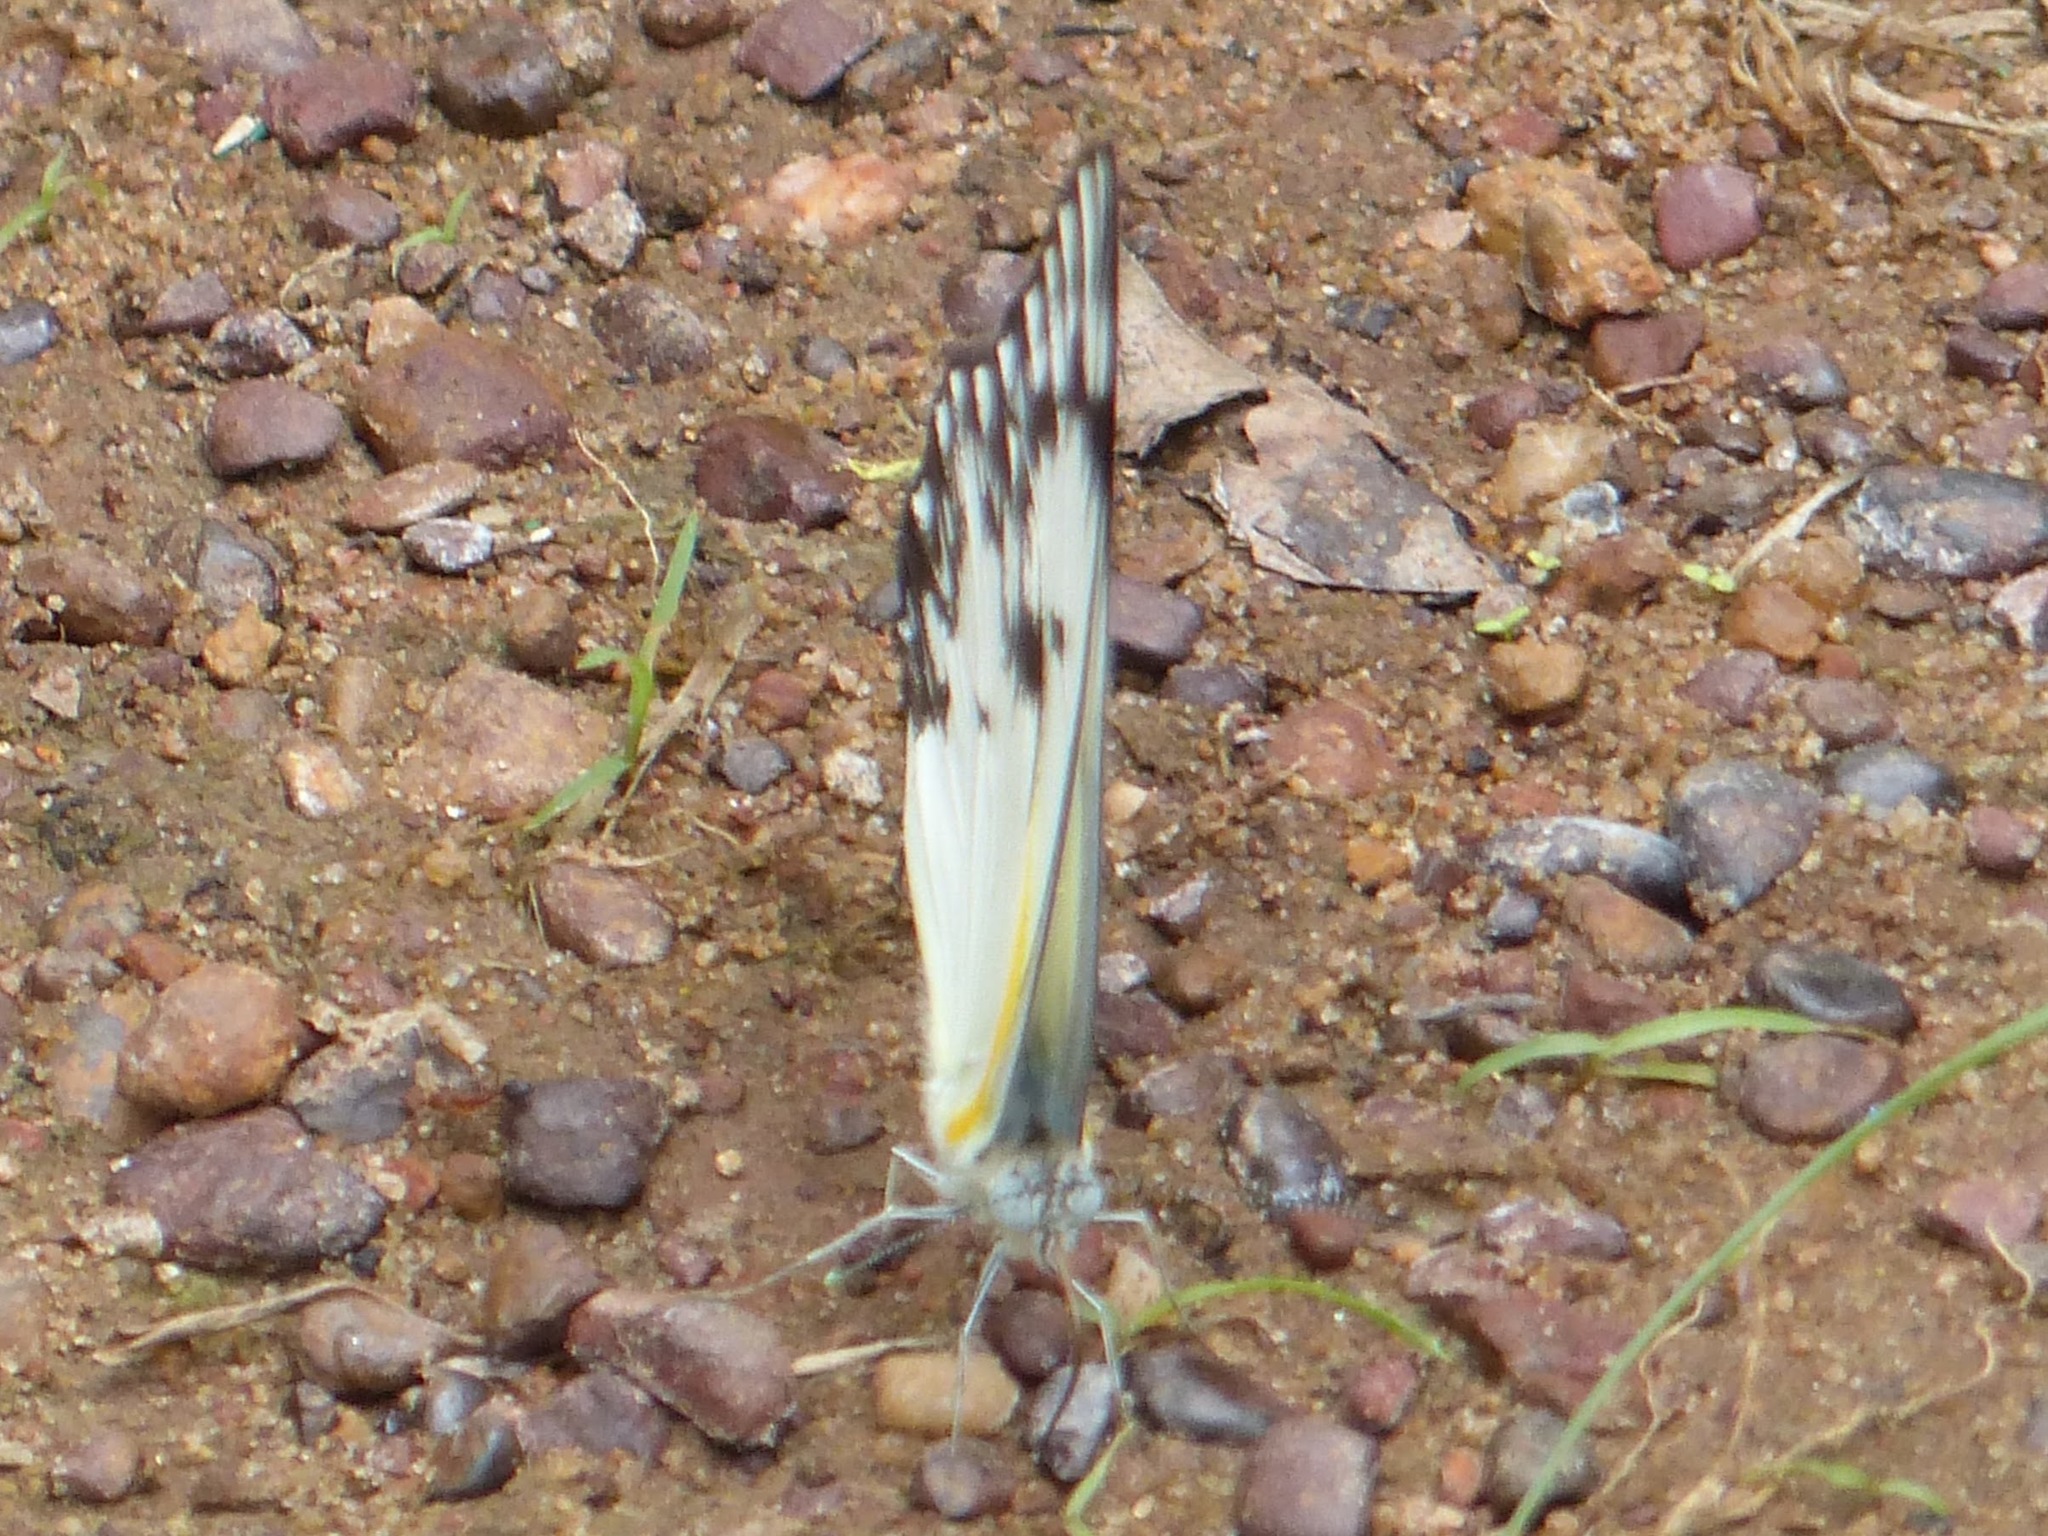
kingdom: Animalia
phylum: Arthropoda
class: Insecta
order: Lepidoptera
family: Pieridae
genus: Belenois
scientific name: Belenois gidica
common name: Pointed caper white
